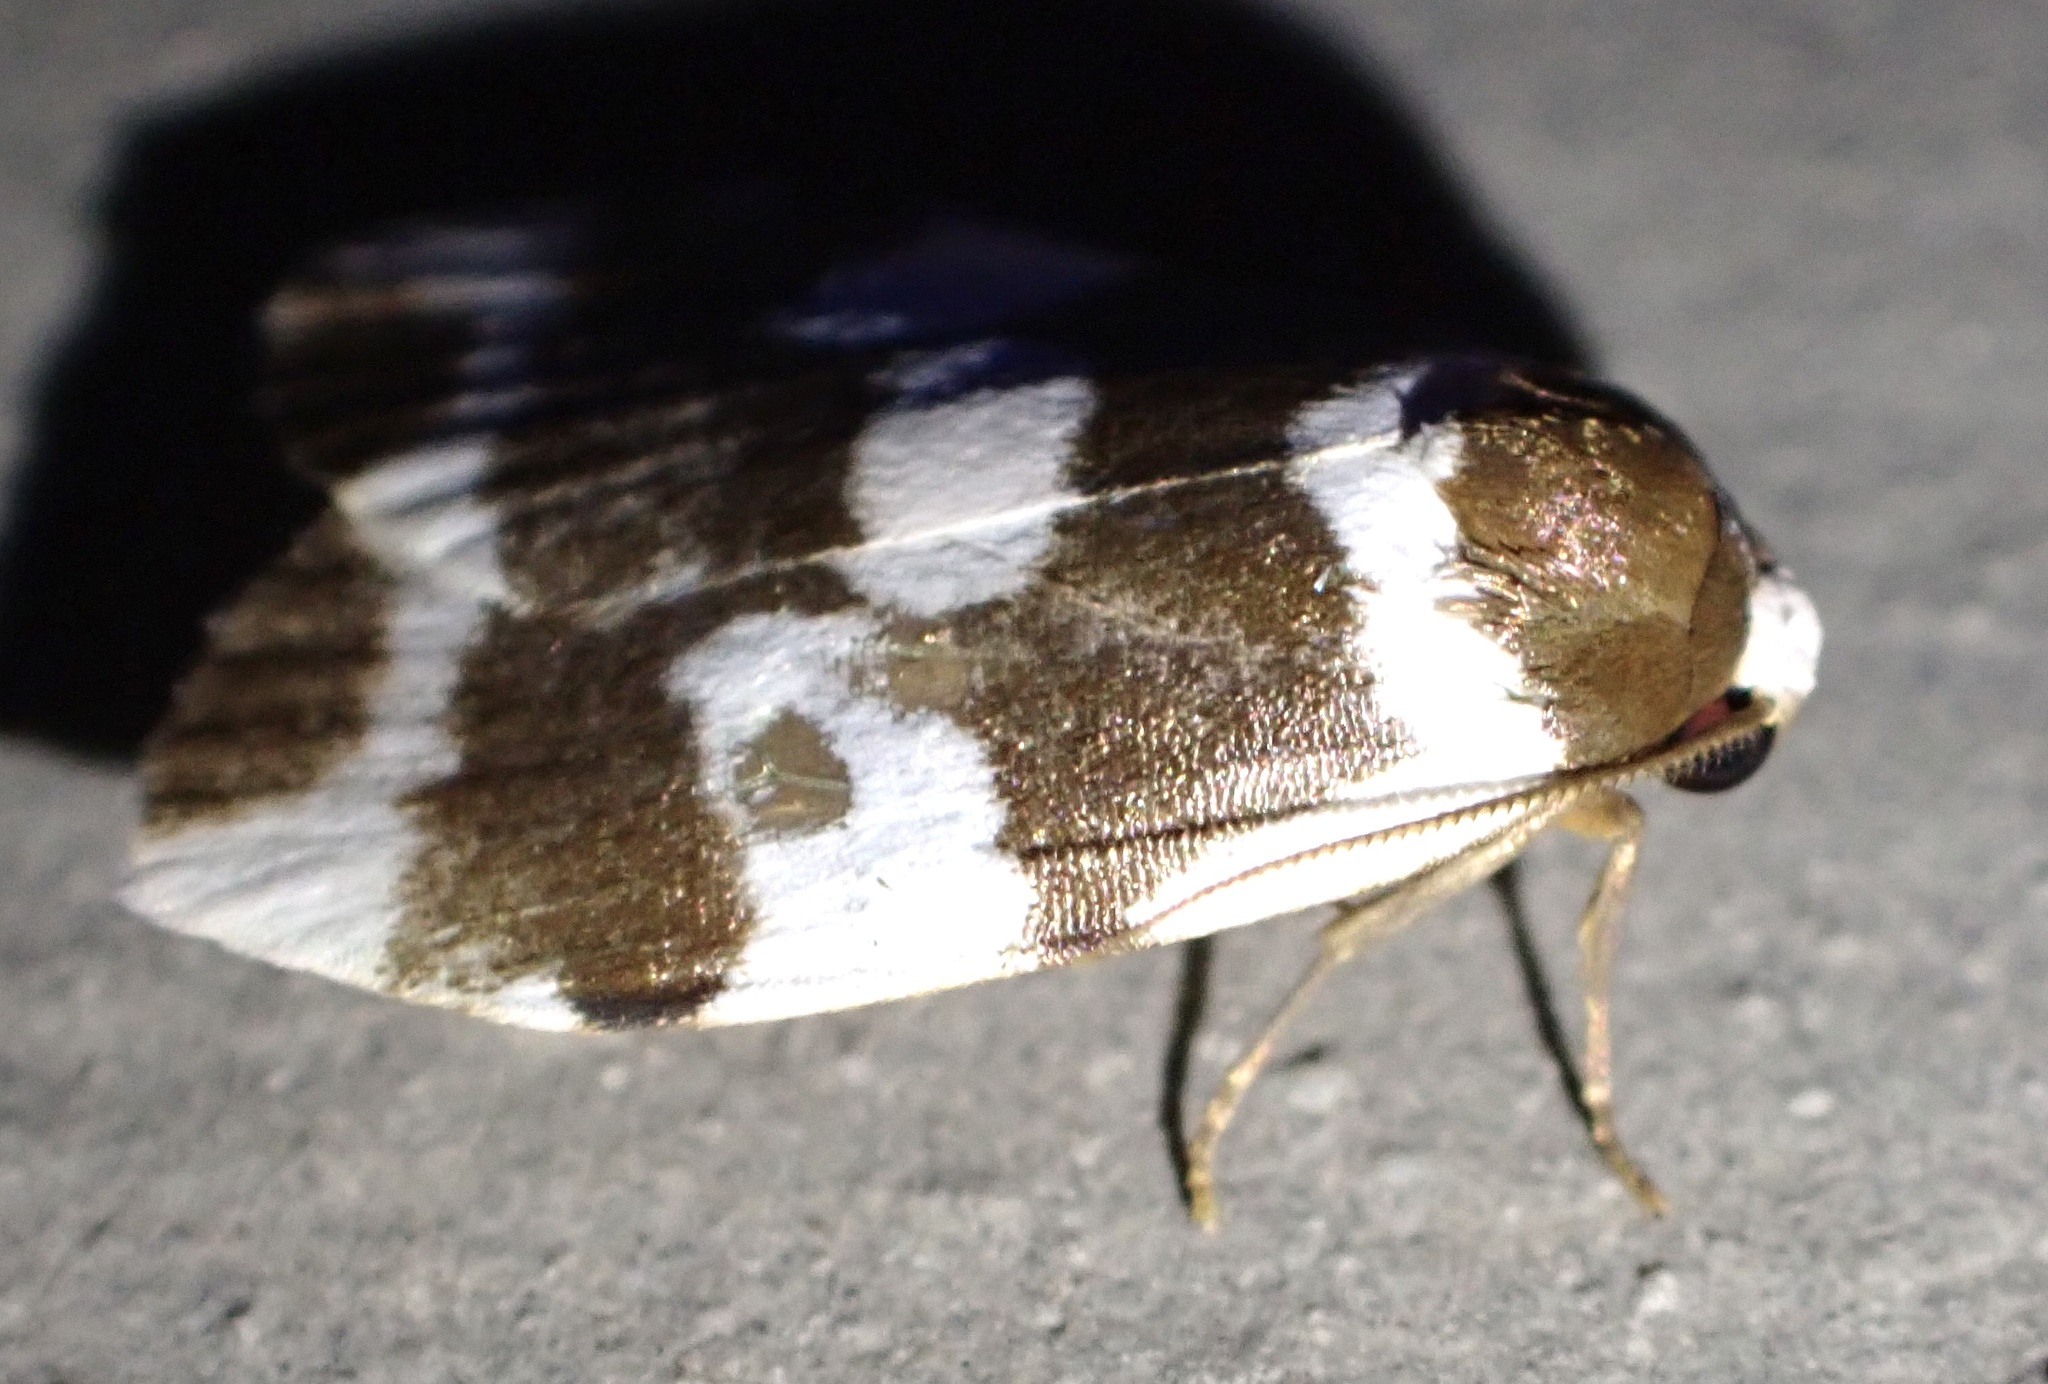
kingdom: Animalia
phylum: Arthropoda
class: Insecta
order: Lepidoptera
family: Erebidae
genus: Macaduma
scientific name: Macaduma macrosema
